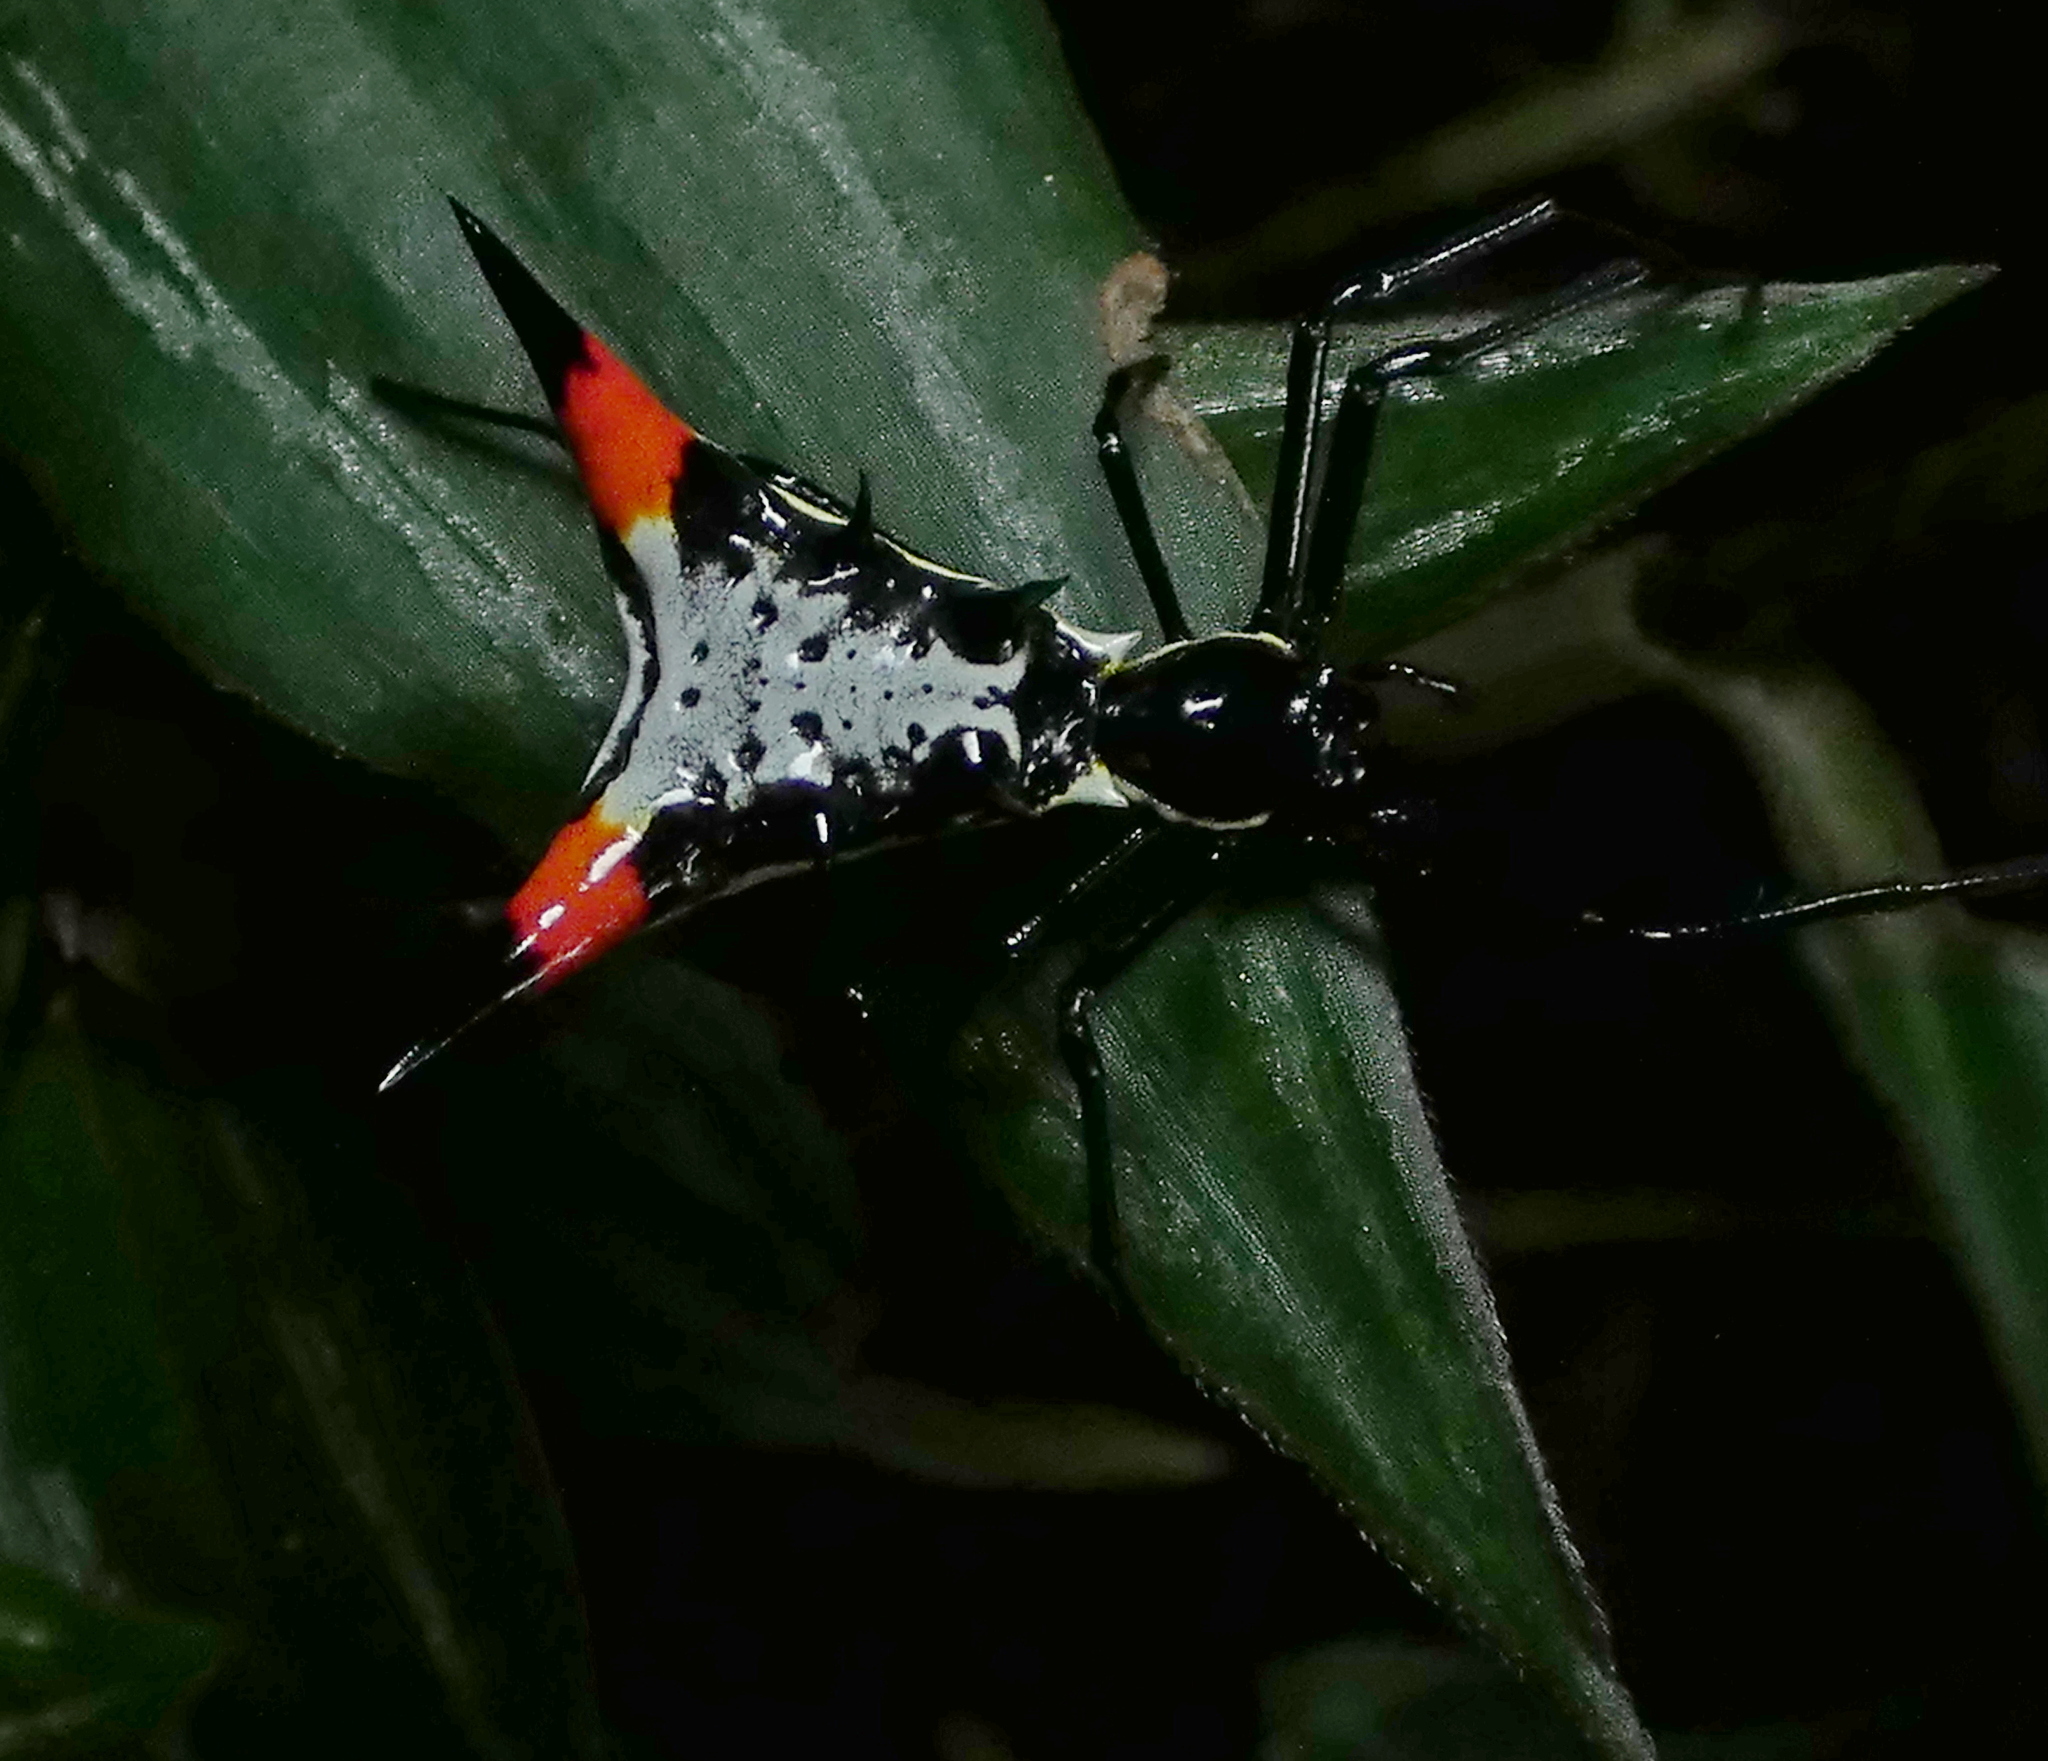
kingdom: Animalia
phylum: Arthropoda
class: Arachnida
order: Araneae
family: Araneidae
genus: Micrathena
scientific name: Micrathena schreibersi
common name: Orb weavers
